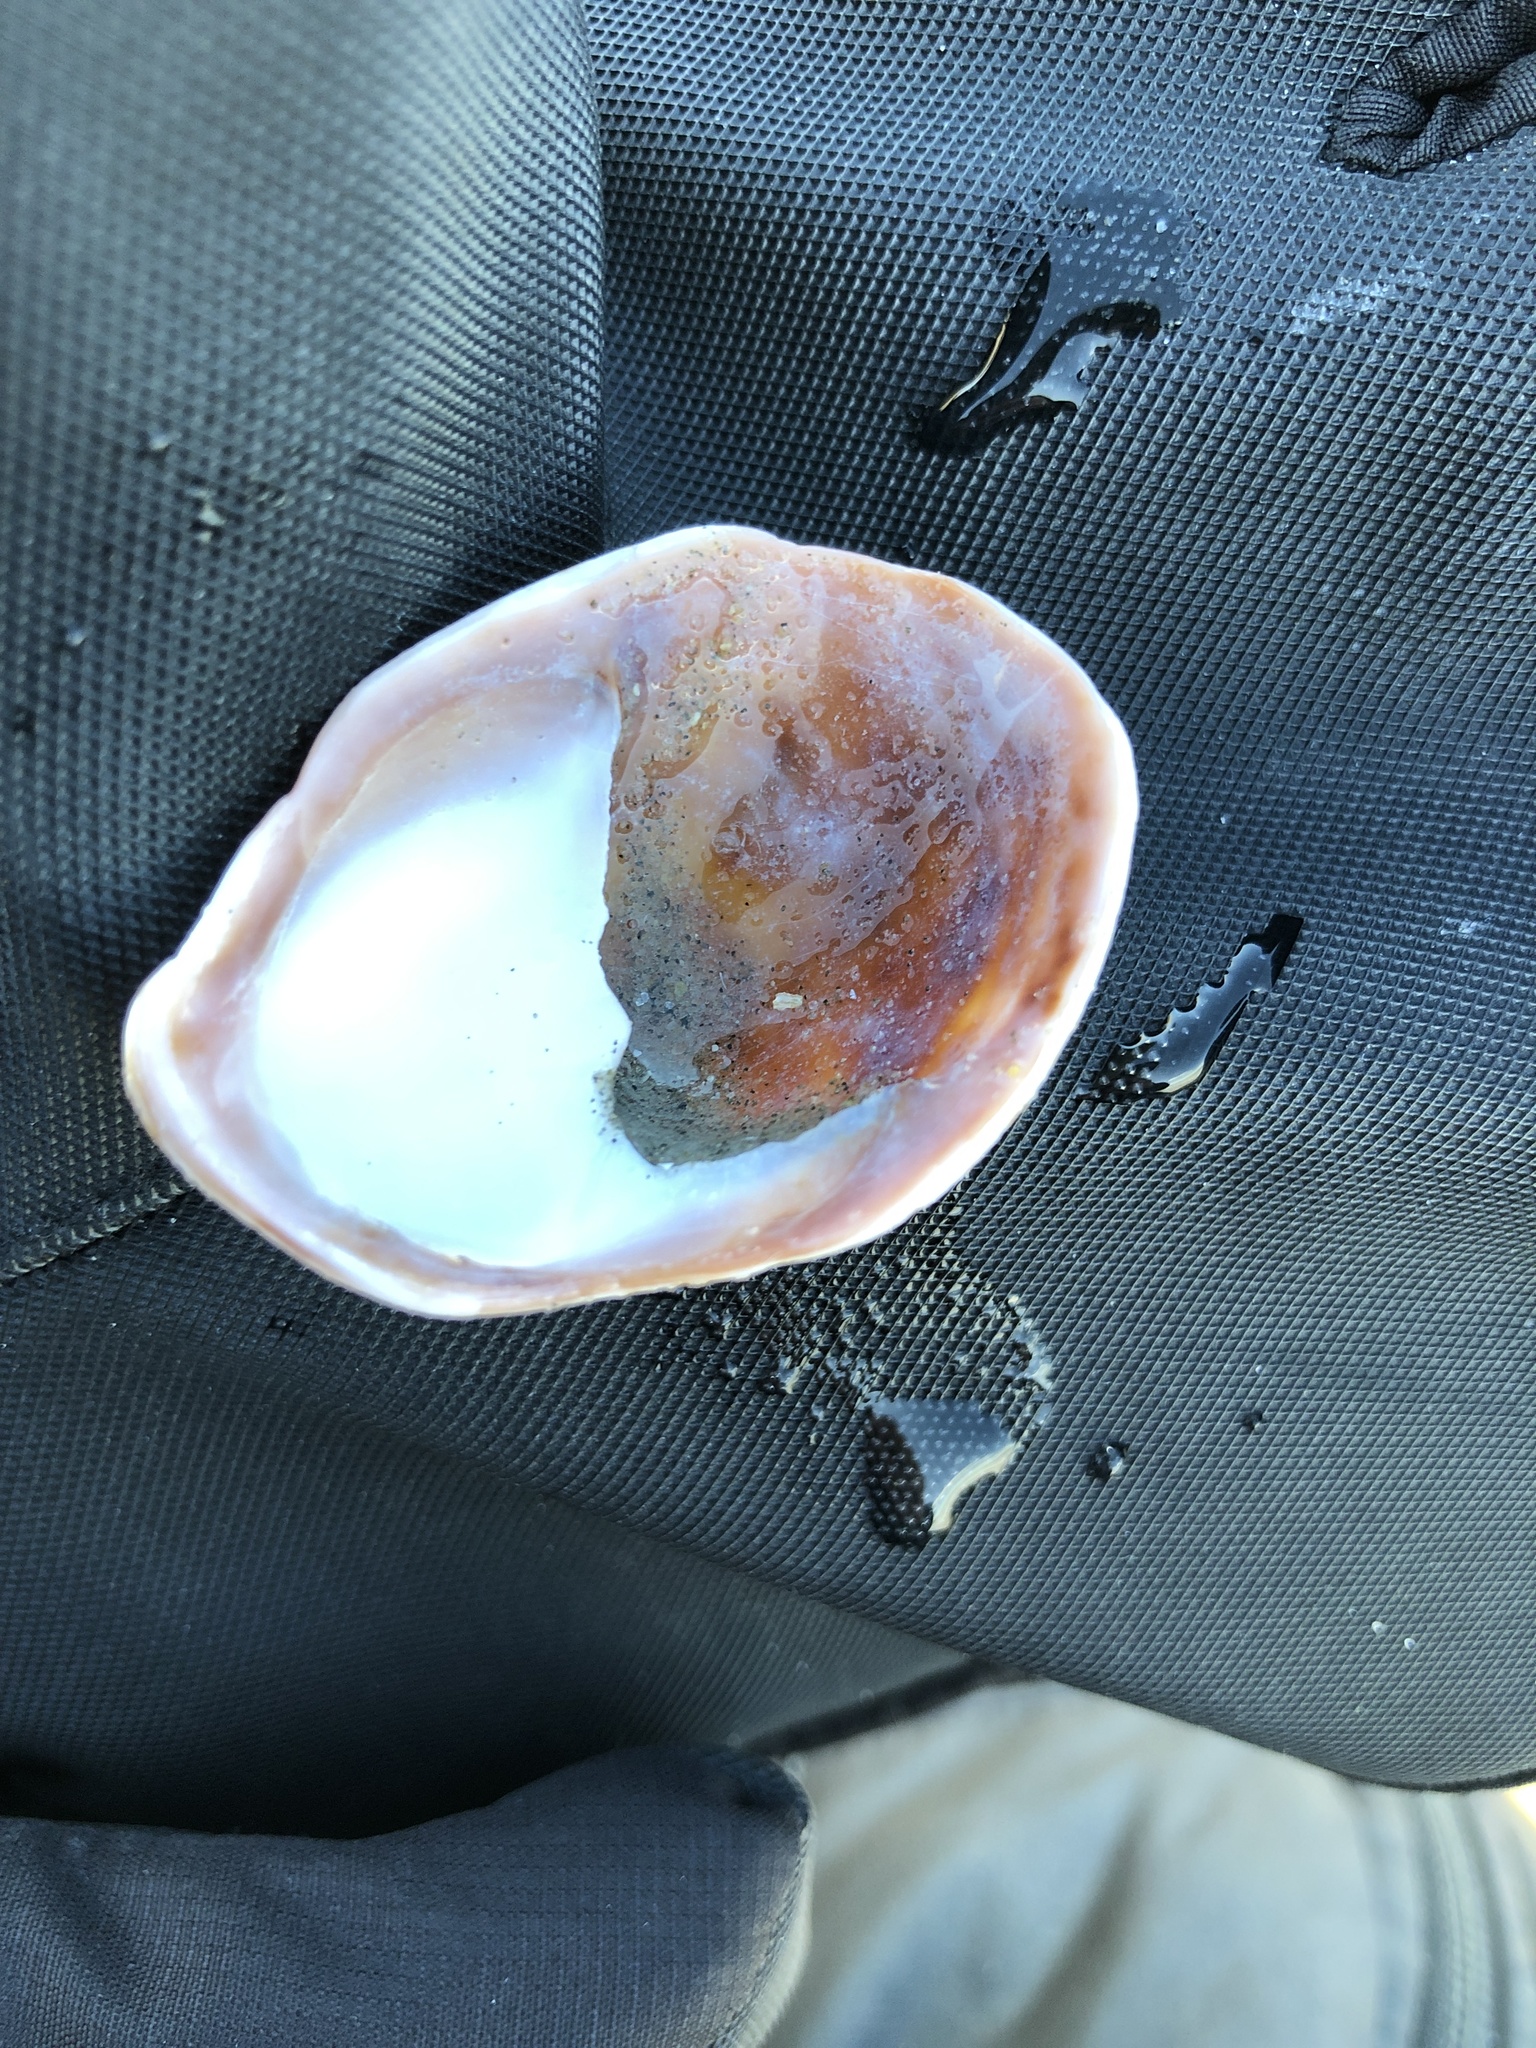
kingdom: Animalia
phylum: Mollusca
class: Gastropoda
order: Littorinimorpha
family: Calyptraeidae
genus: Crepidula
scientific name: Crepidula fornicata
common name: Slipper limpet
